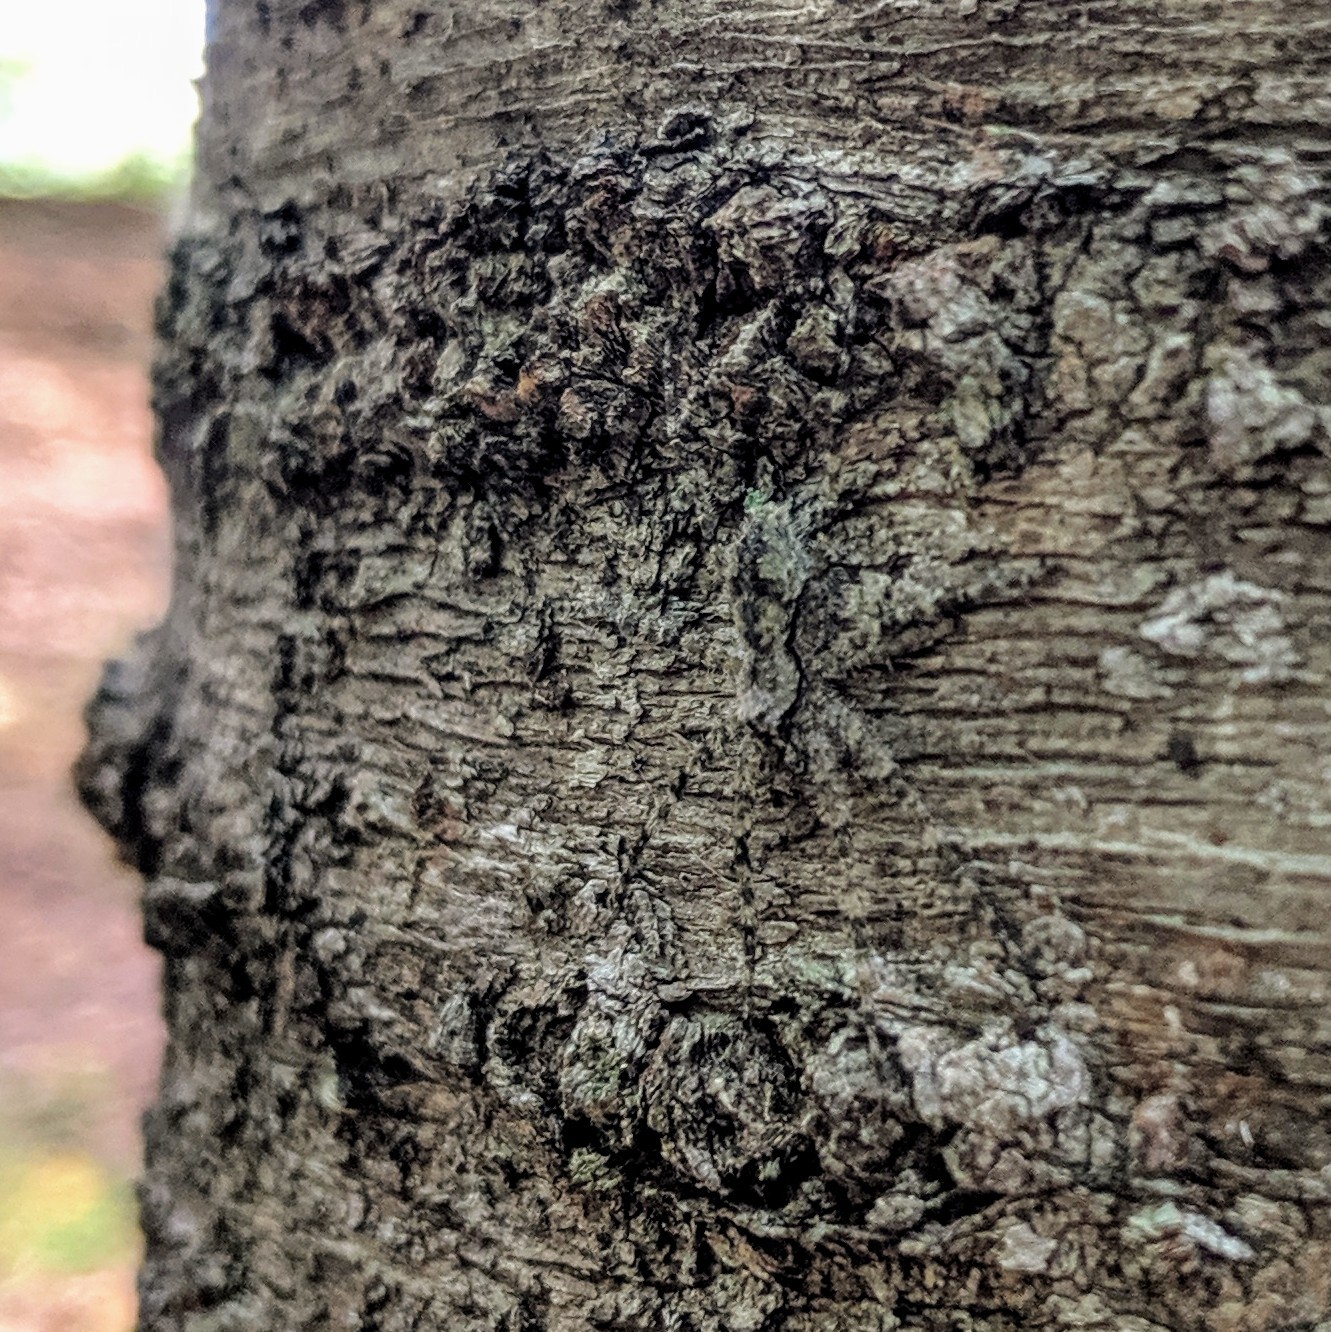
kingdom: Animalia
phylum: Arthropoda
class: Arachnida
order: Araneae
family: Pisauridae
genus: Dolomedes
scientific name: Dolomedes albineus
